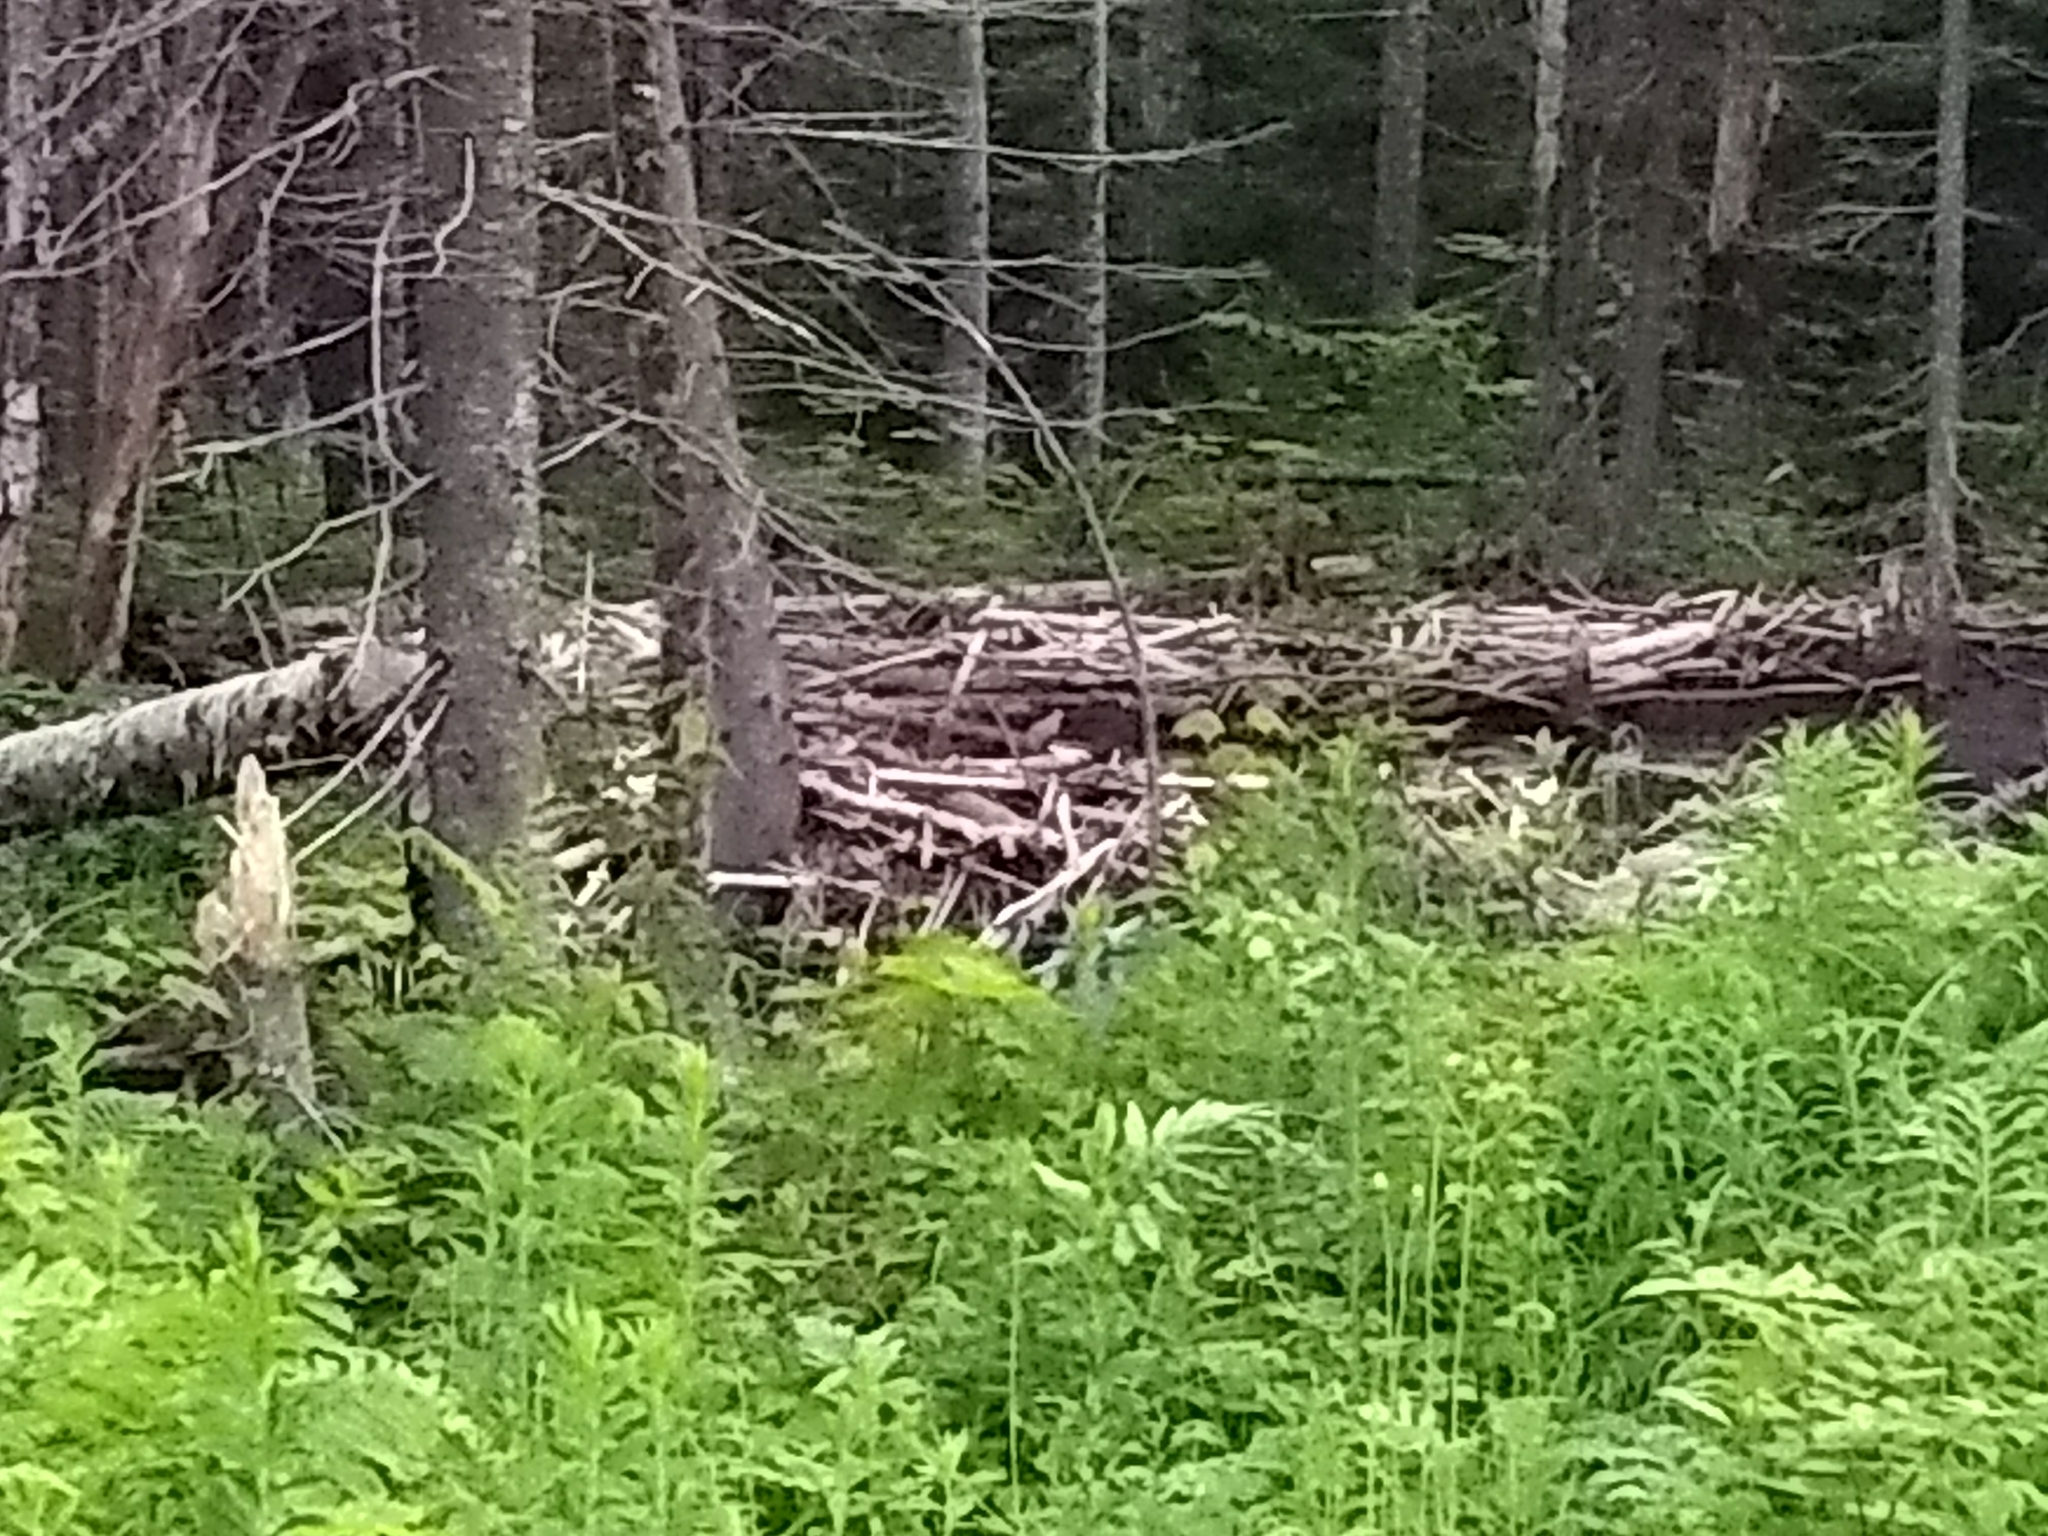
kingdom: Animalia
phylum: Chordata
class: Mammalia
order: Rodentia
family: Castoridae
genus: Castor
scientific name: Castor canadensis
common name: American beaver
